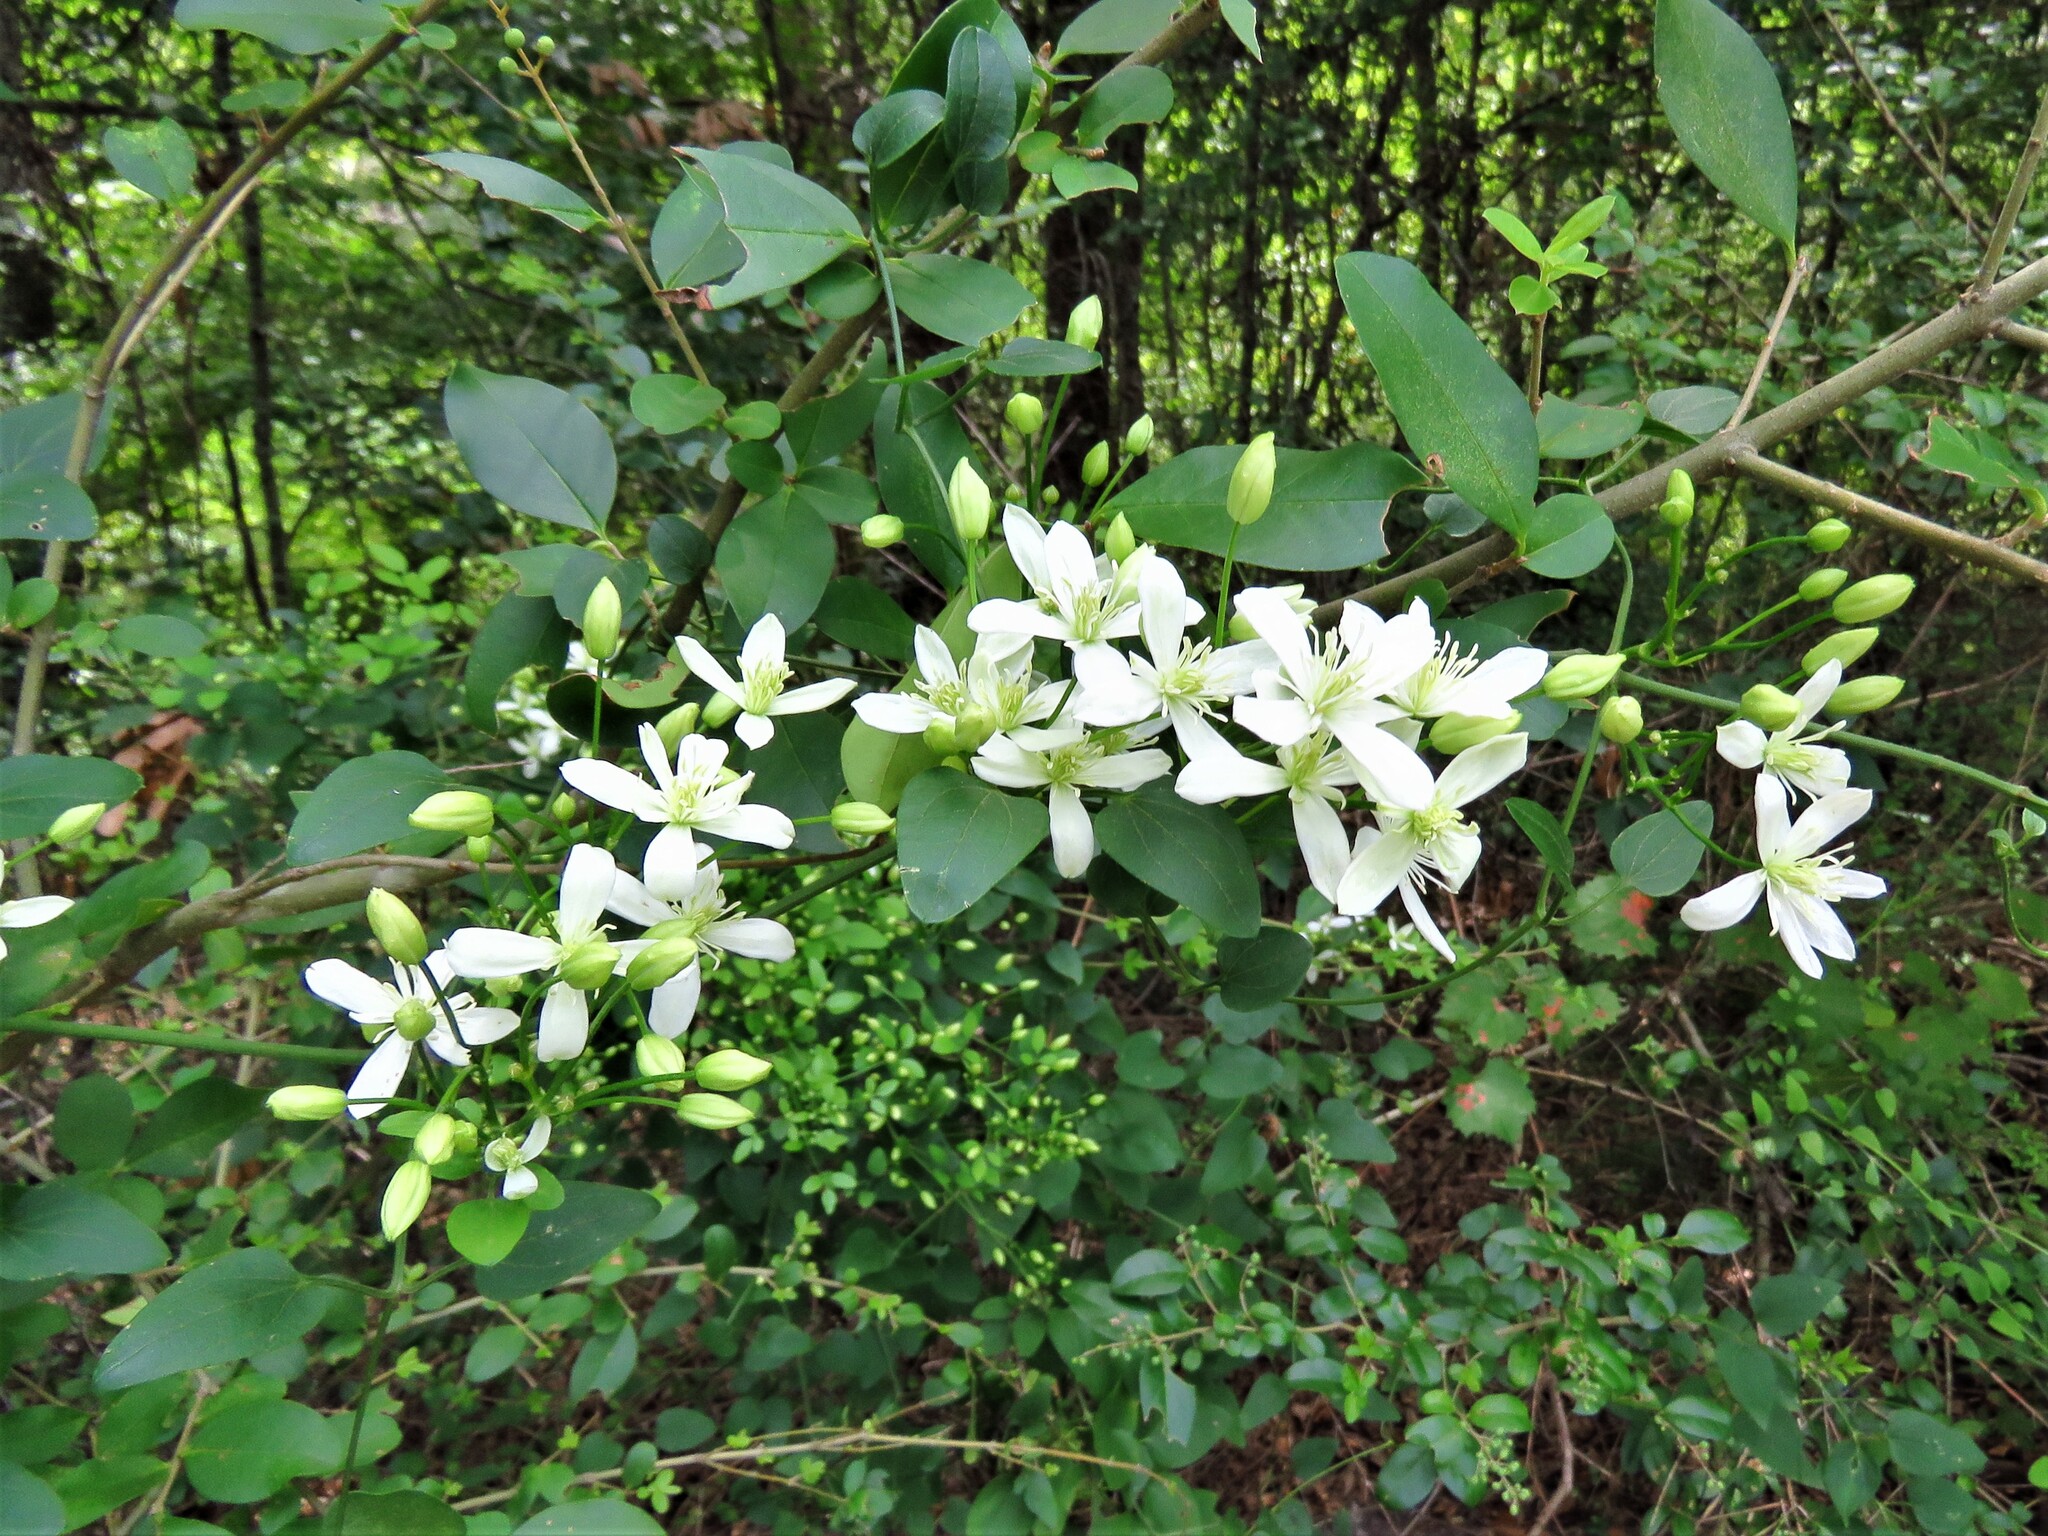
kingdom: Plantae
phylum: Tracheophyta
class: Magnoliopsida
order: Ranunculales
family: Ranunculaceae
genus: Clematis
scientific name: Clematis terniflora
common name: Sweet autumn clematis
